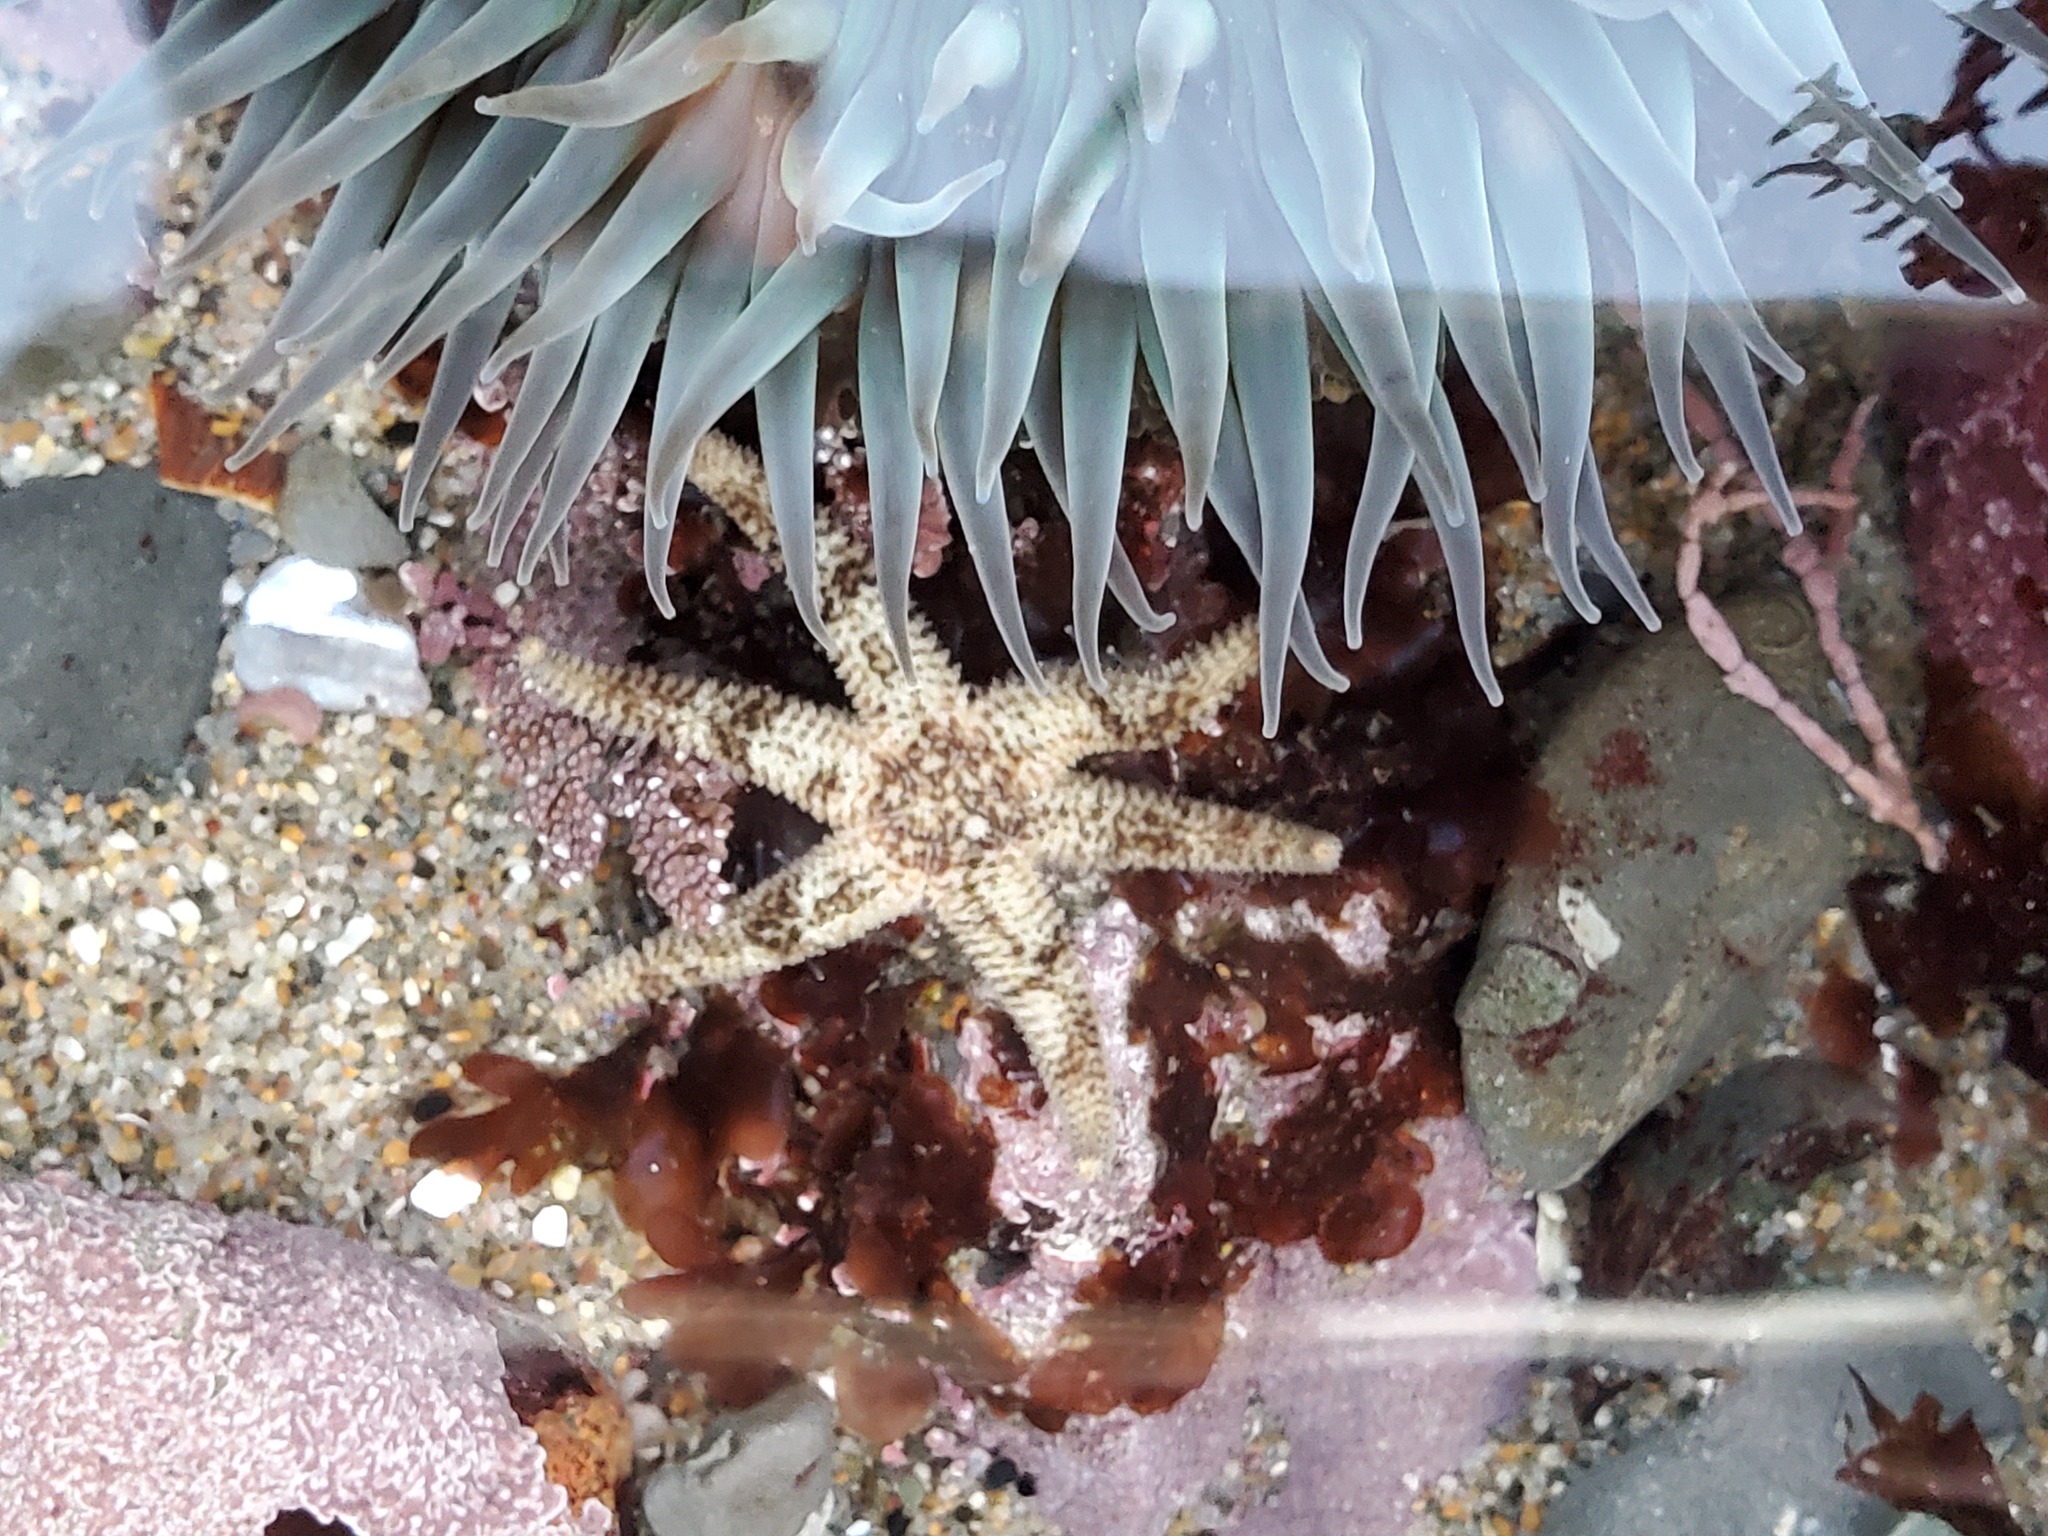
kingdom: Animalia
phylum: Echinodermata
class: Asteroidea
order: Forcipulatida
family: Asteriidae
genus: Leptasterias
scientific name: Leptasterias hexactis
